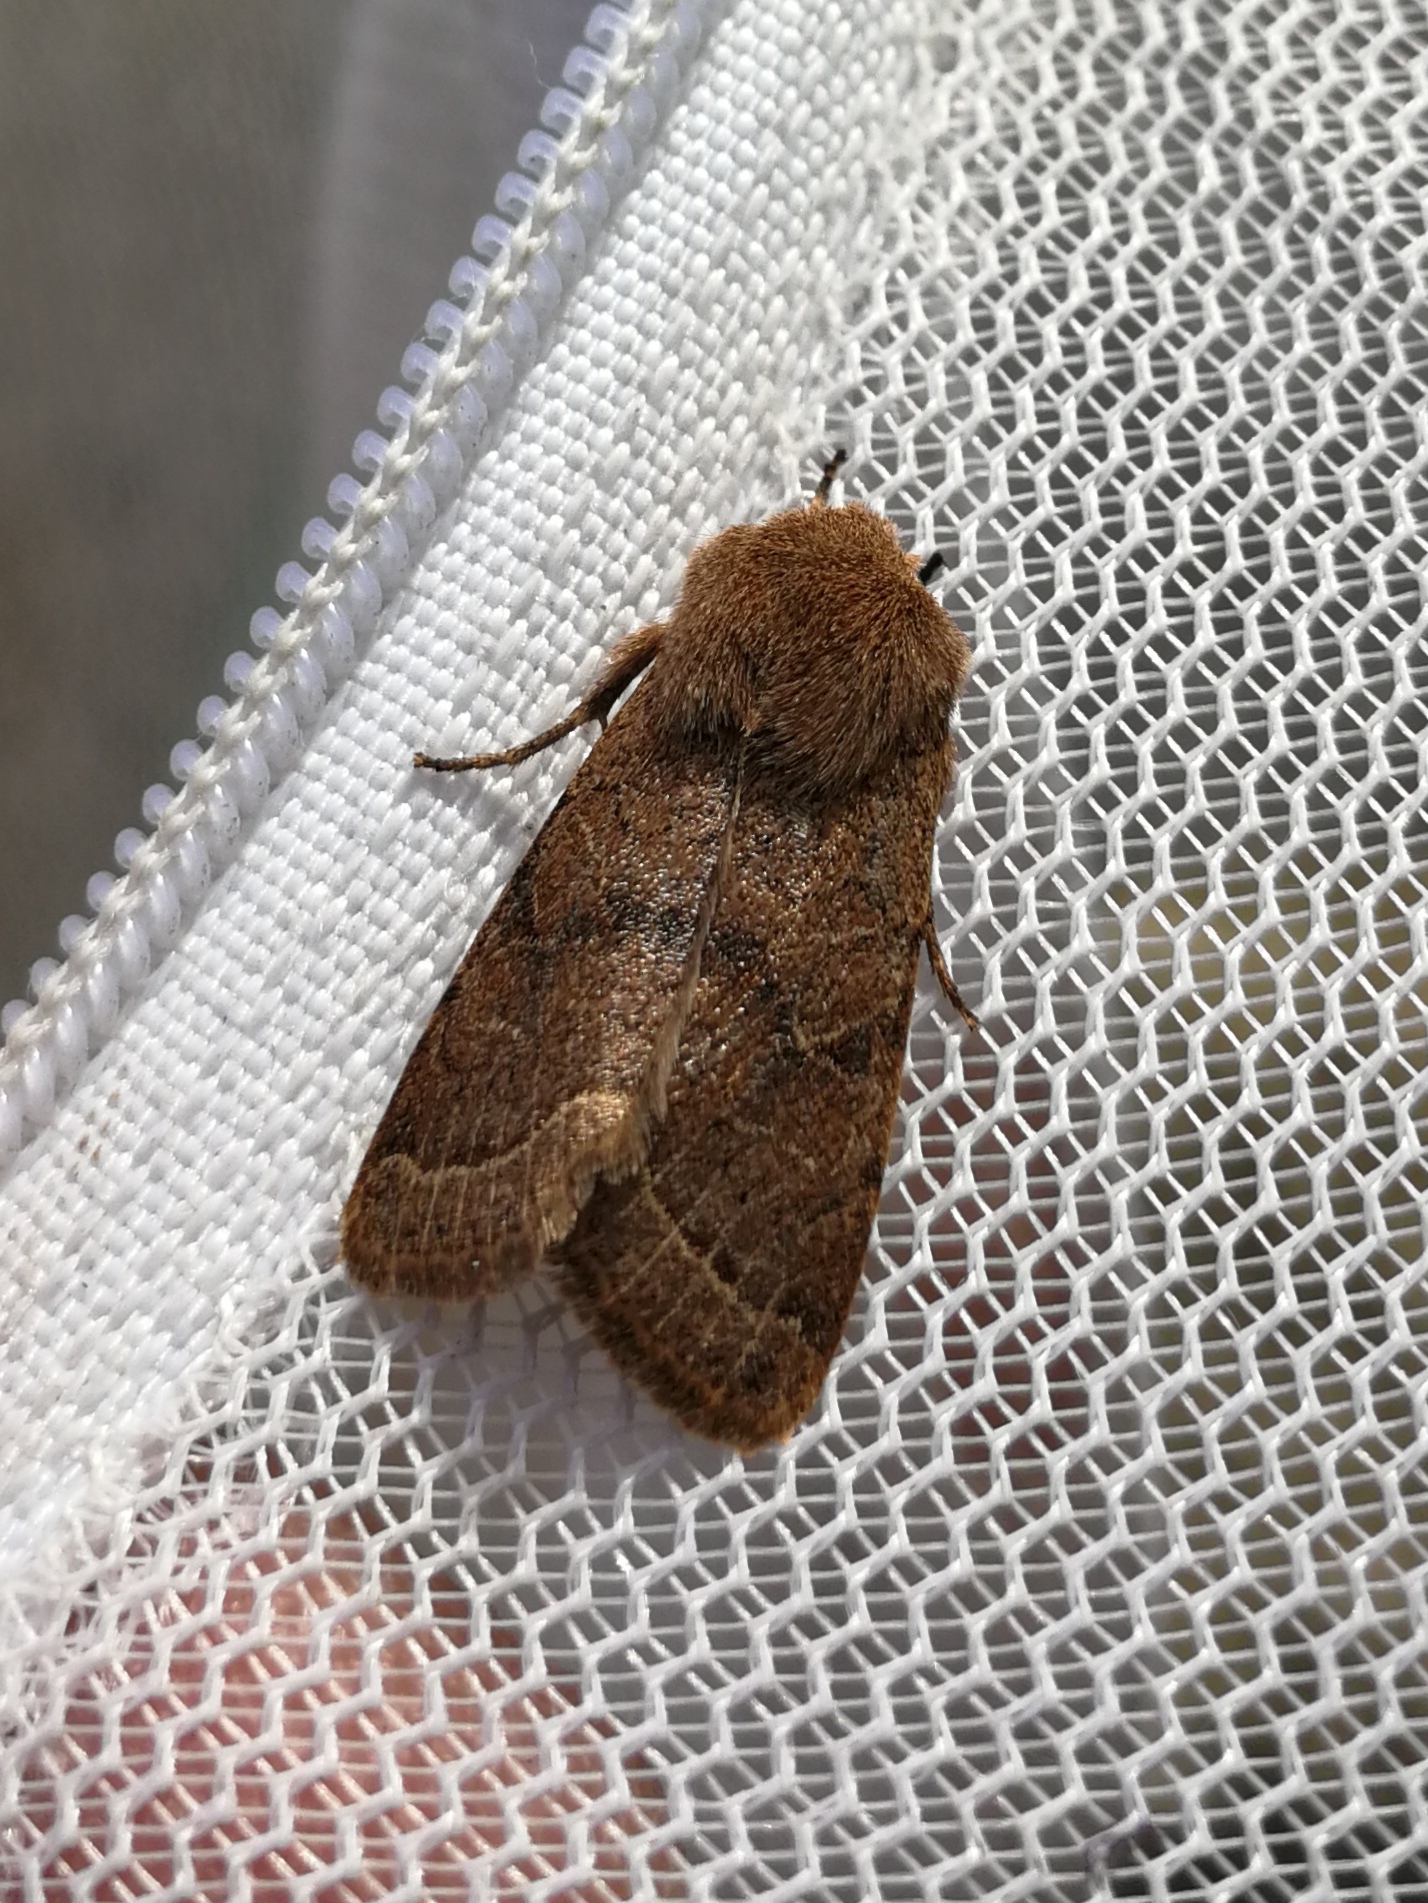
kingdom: Animalia
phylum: Arthropoda
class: Insecta
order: Lepidoptera
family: Noctuidae
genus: Orthosia
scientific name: Orthosia cerasi
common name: Common quaker
